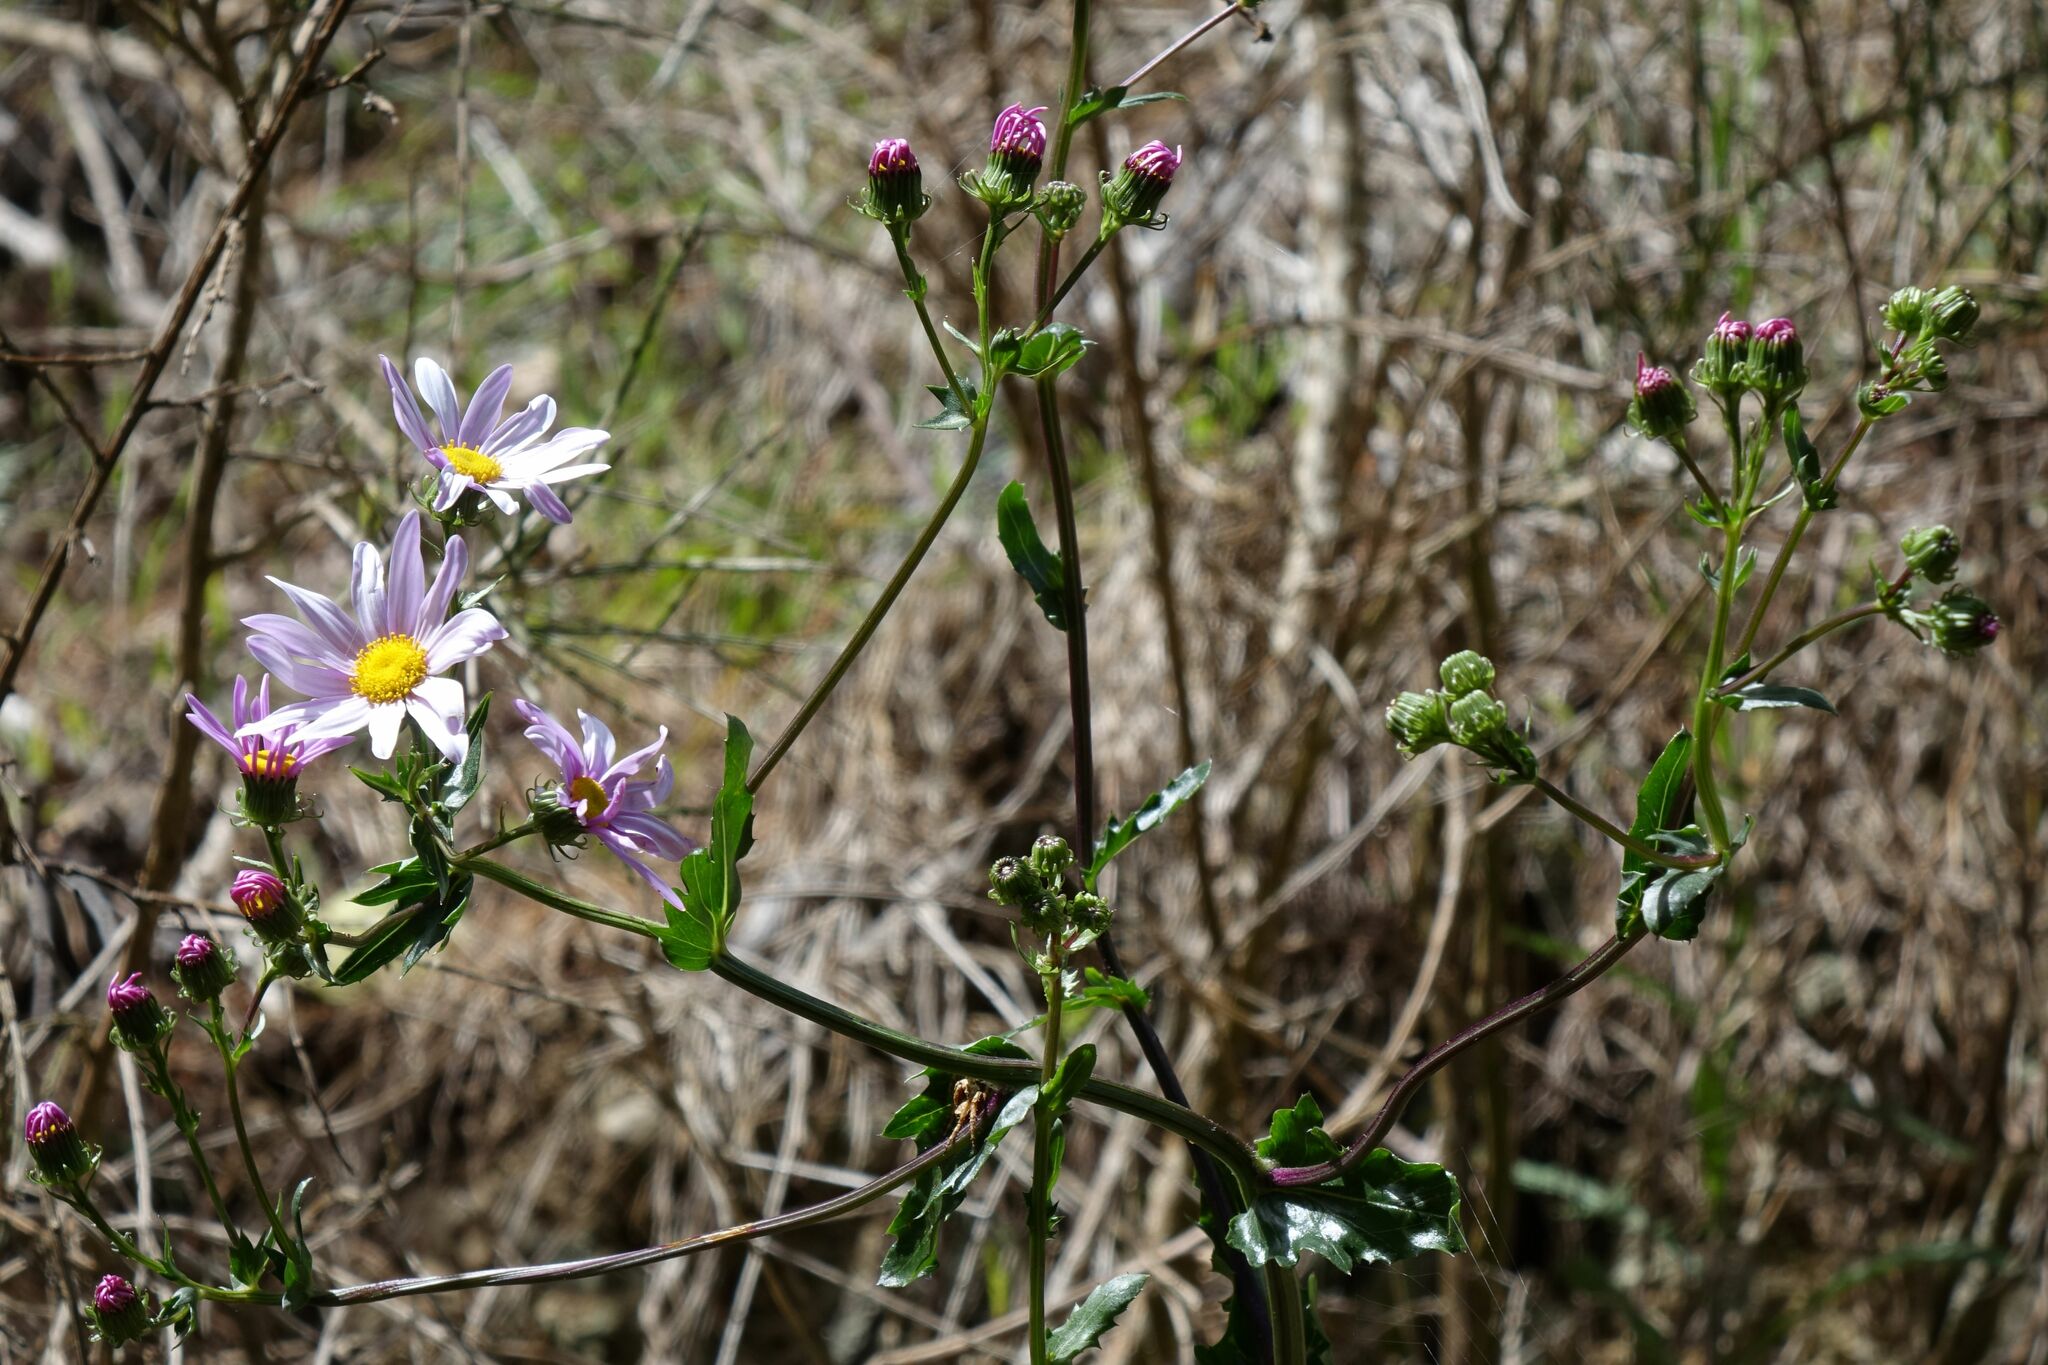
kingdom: Plantae
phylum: Tracheophyta
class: Magnoliopsida
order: Asterales
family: Asteraceae
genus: Senecio
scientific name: Senecio glastifolius
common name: Woad-leaved ragwort
